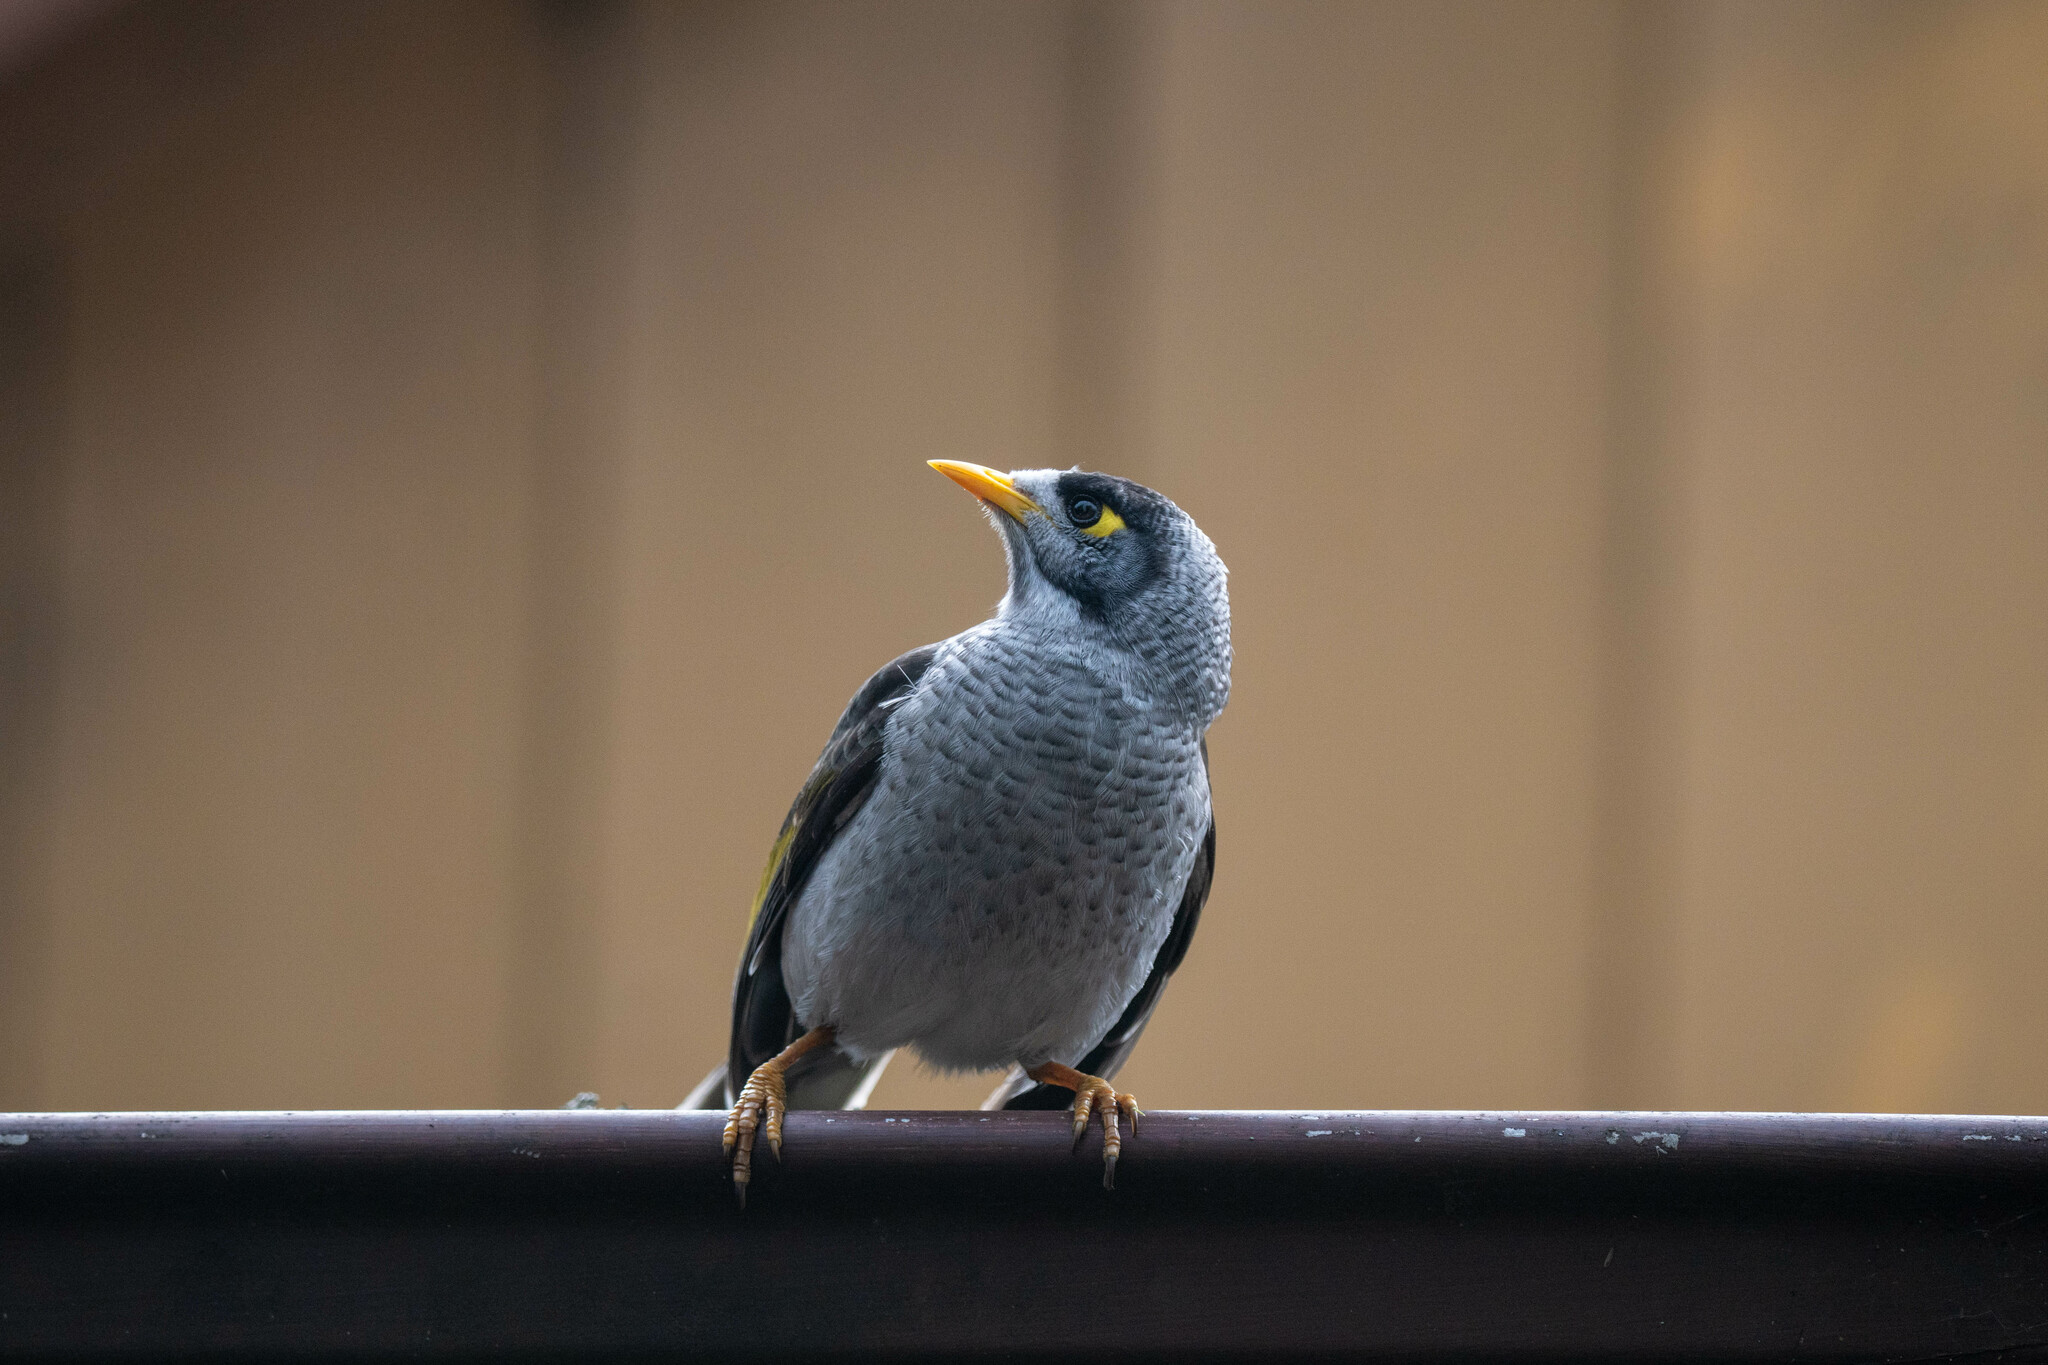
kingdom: Animalia
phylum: Chordata
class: Aves
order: Passeriformes
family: Meliphagidae
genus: Manorina
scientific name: Manorina melanocephala
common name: Noisy miner
